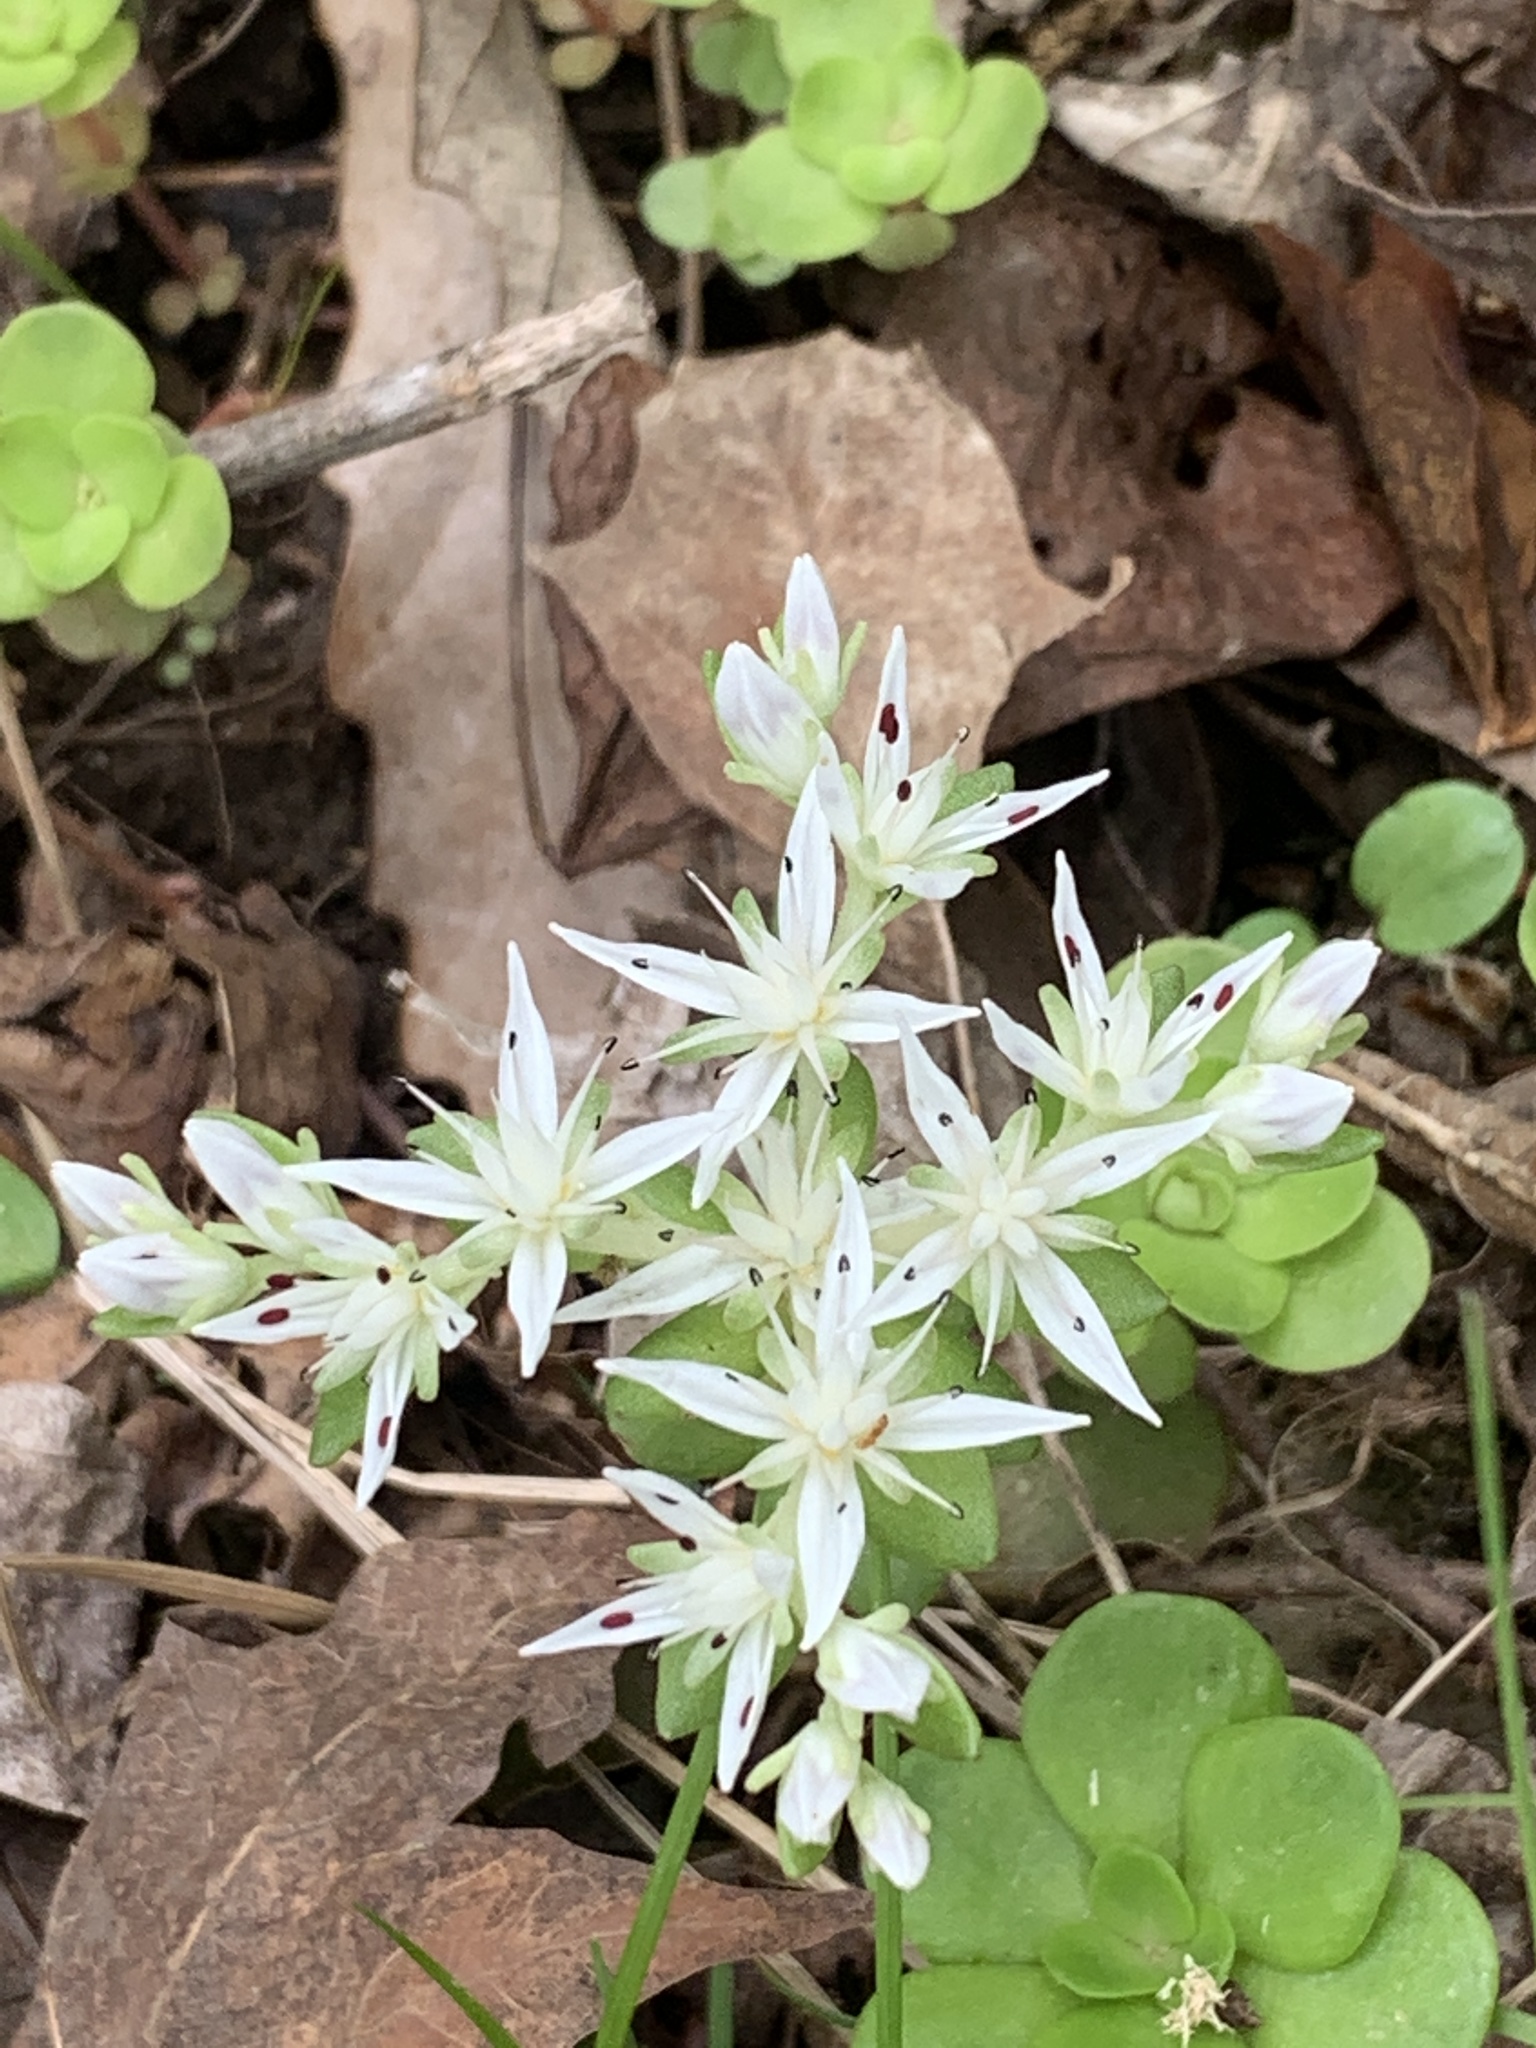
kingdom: Plantae
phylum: Tracheophyta
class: Magnoliopsida
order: Saxifragales
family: Crassulaceae
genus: Sedum
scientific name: Sedum ternatum
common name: Wild stonecrop
